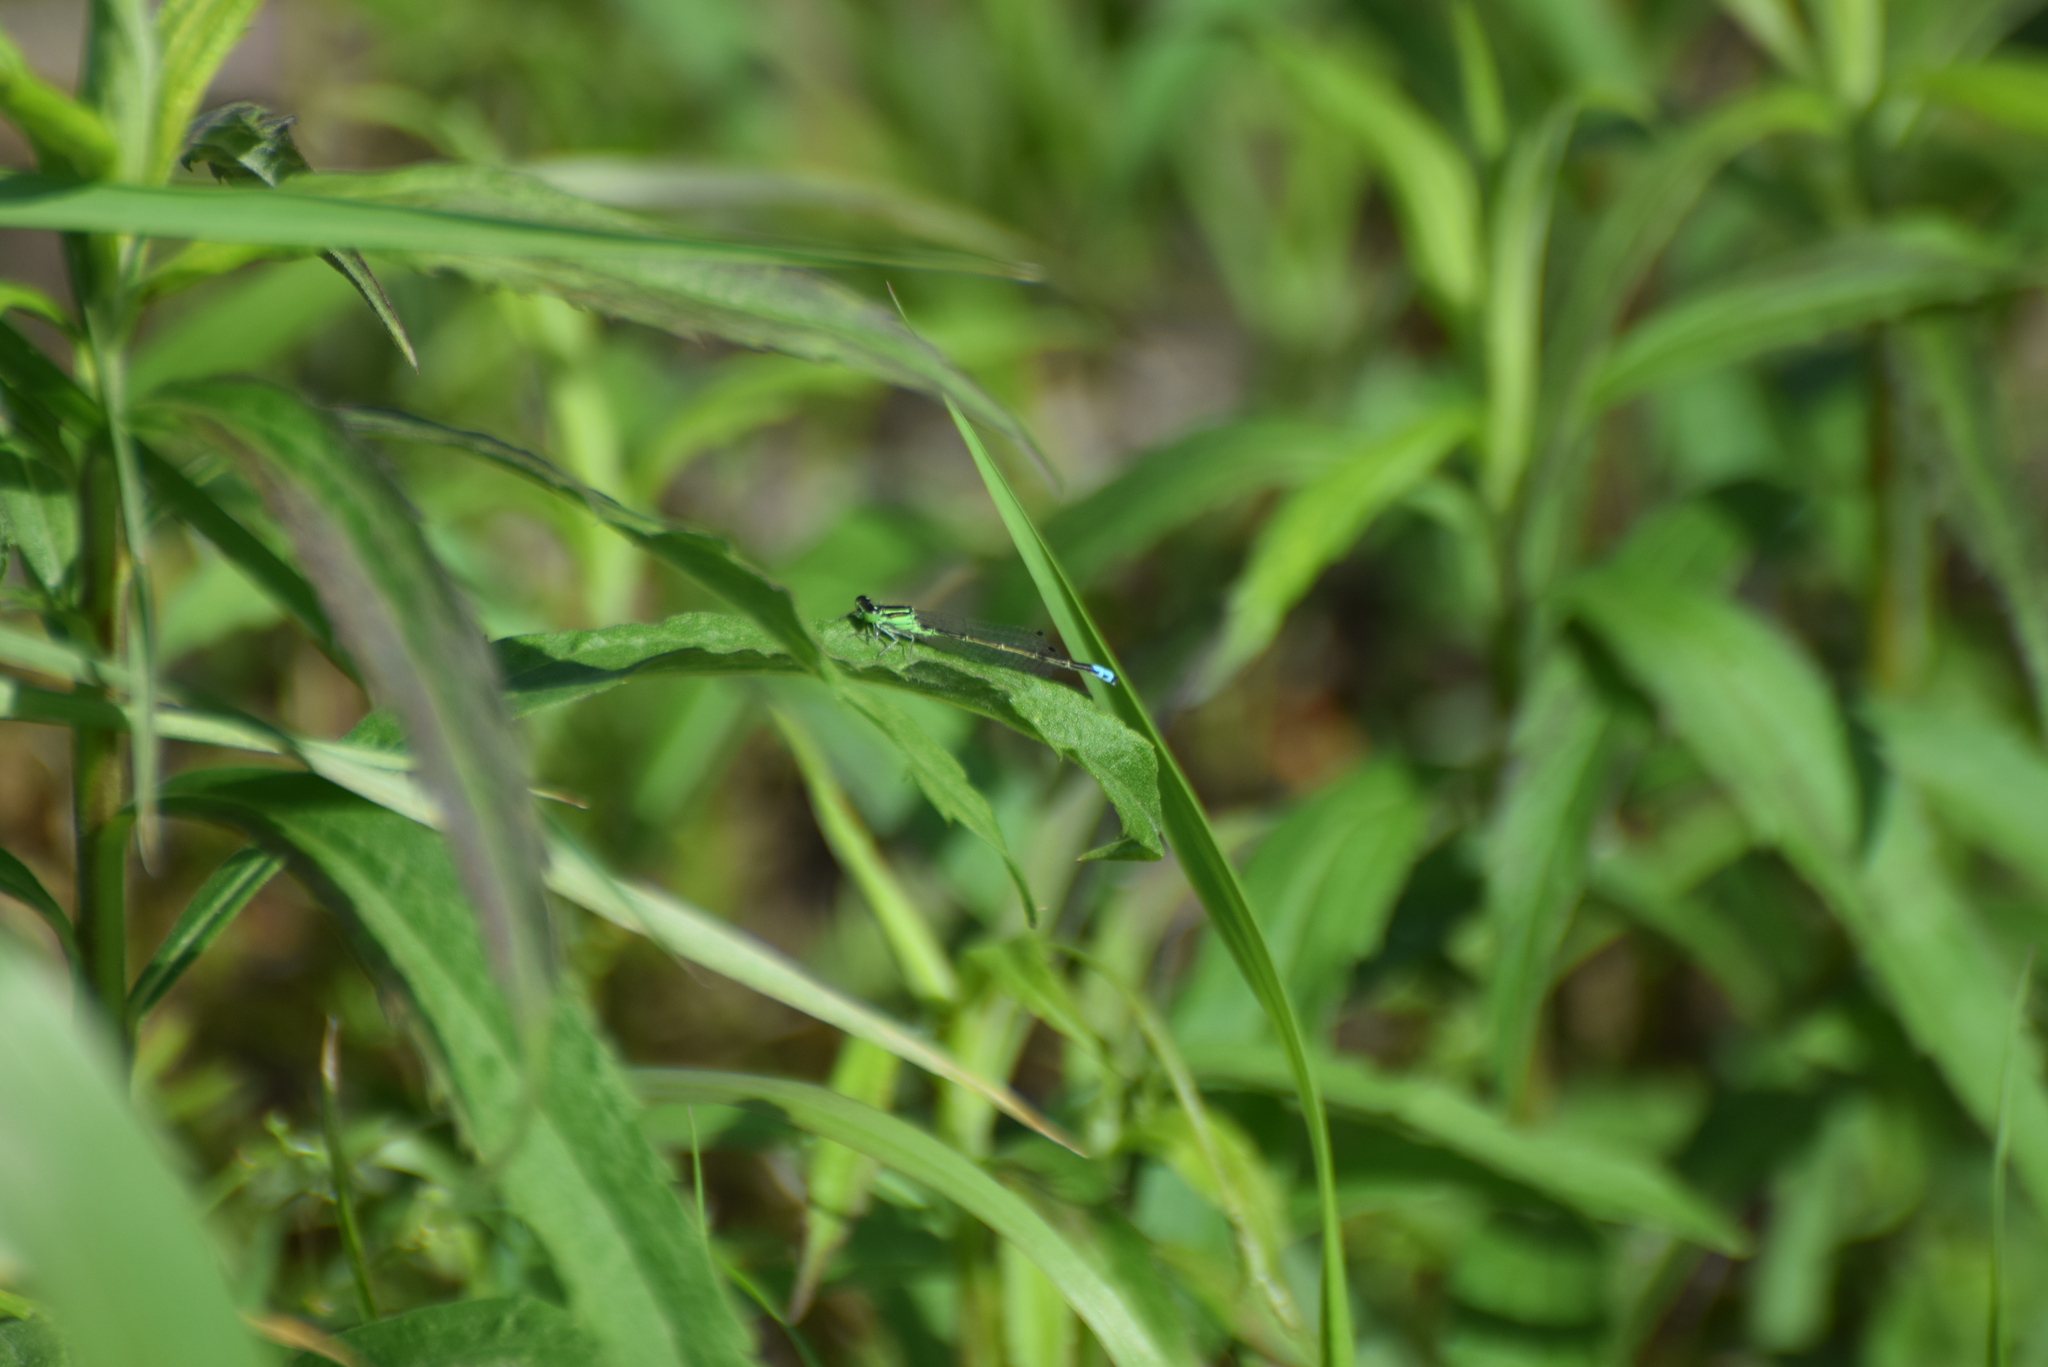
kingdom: Animalia
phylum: Arthropoda
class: Insecta
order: Odonata
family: Coenagrionidae
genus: Ischnura
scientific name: Ischnura verticalis
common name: Eastern forktail
